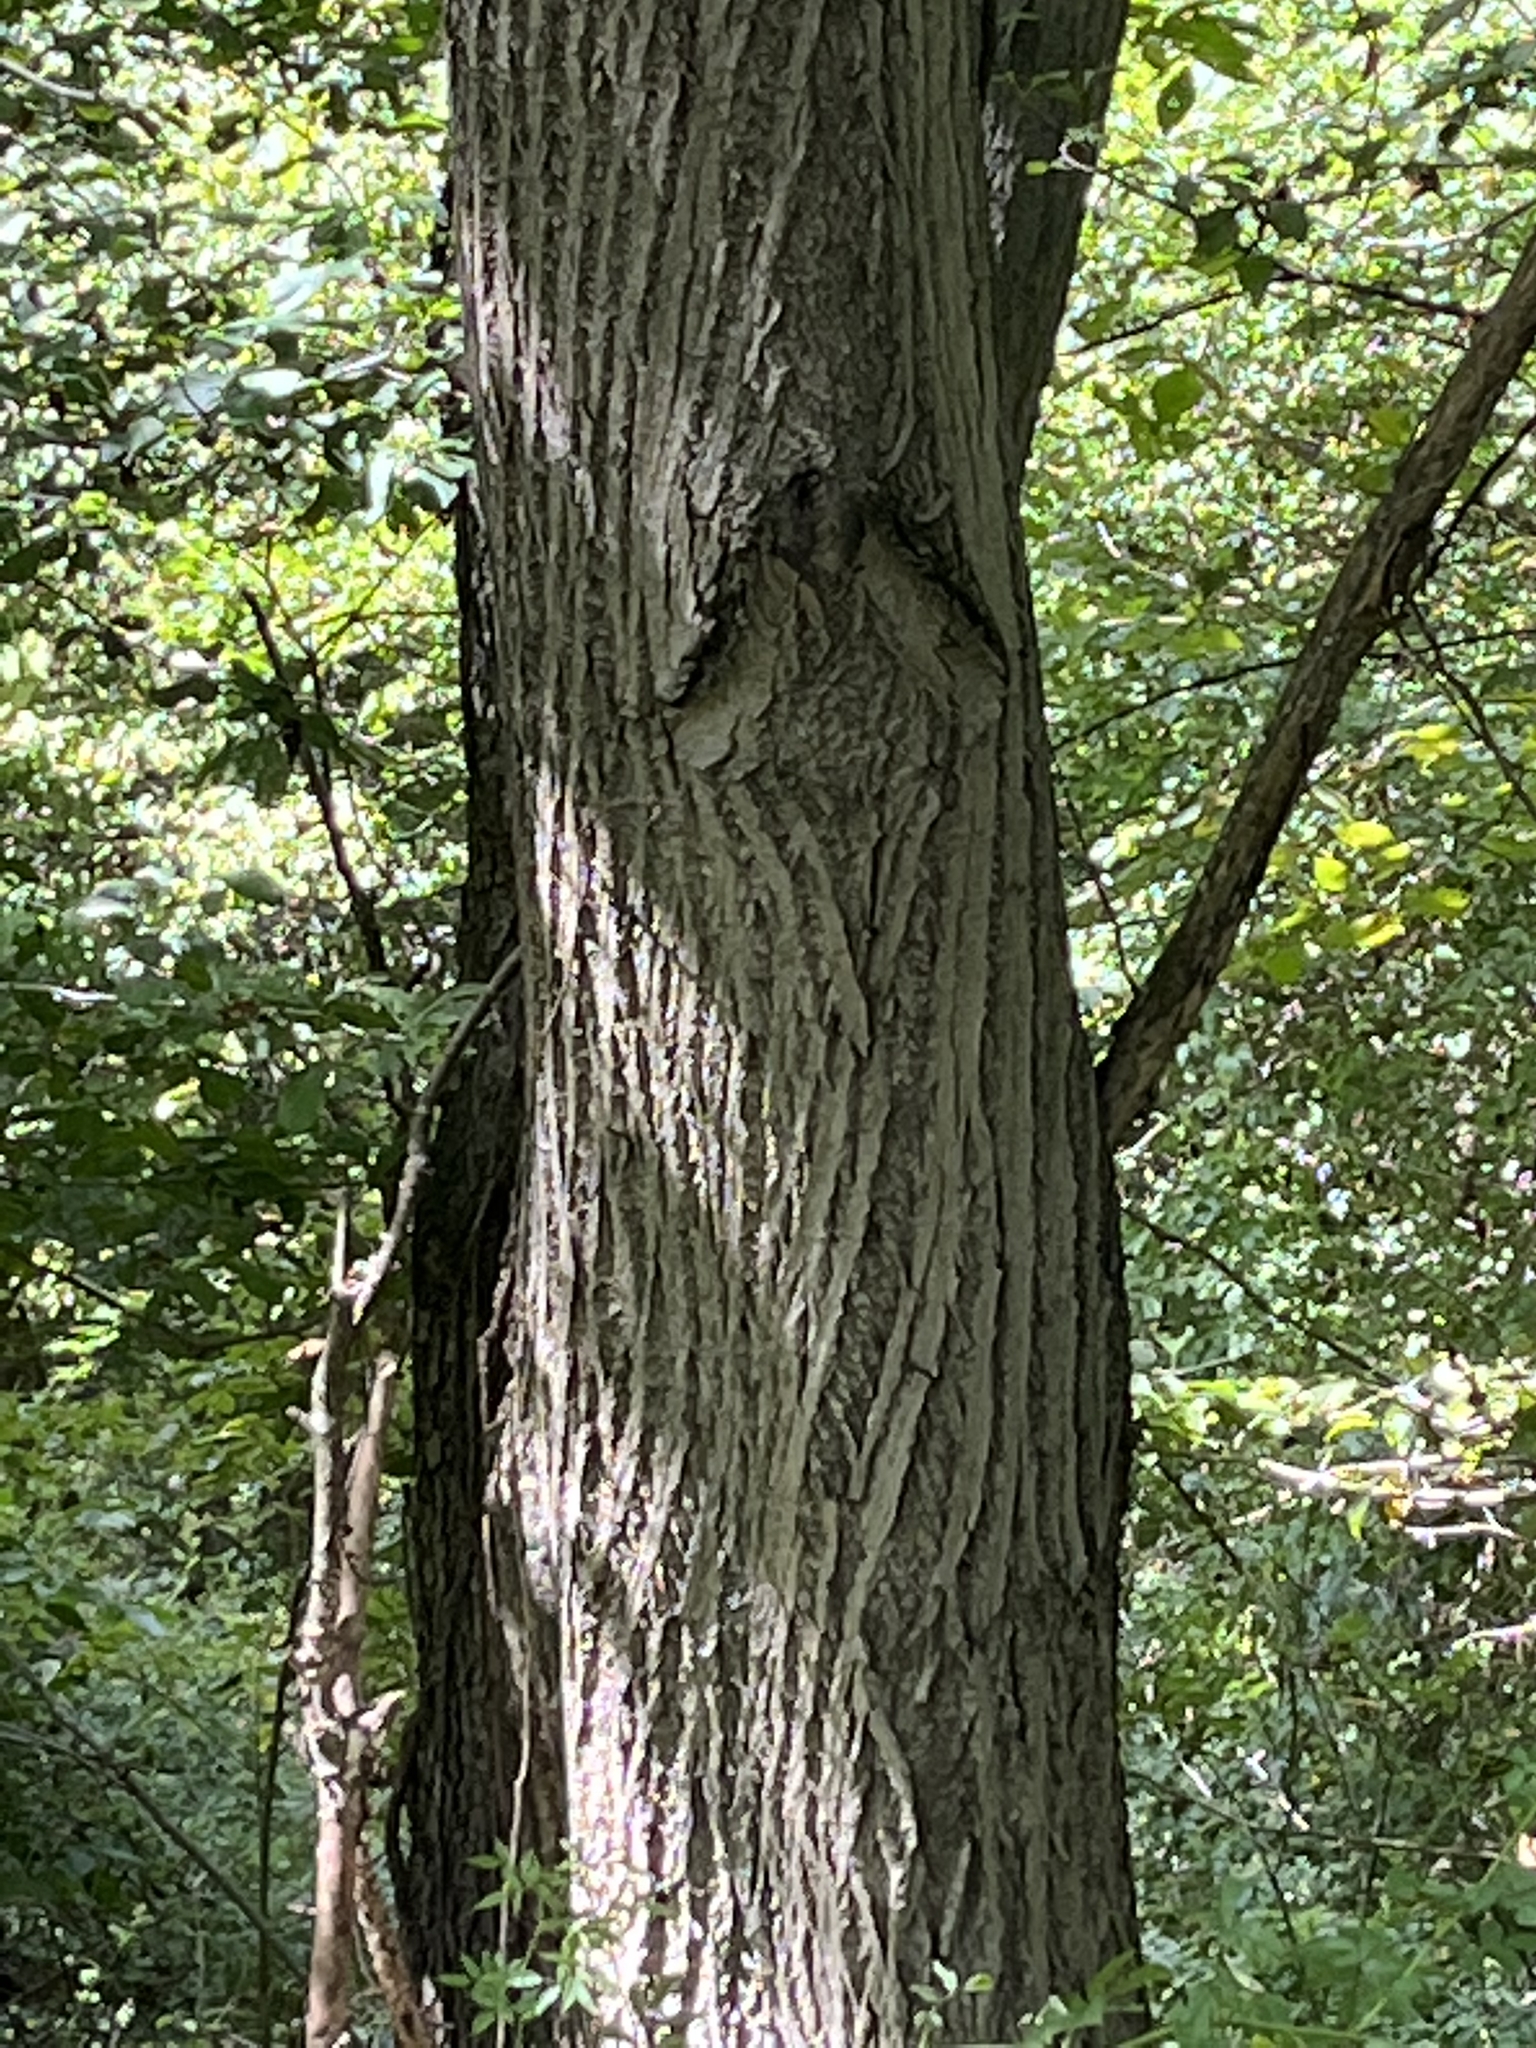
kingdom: Plantae
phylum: Tracheophyta
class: Magnoliopsida
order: Fagales
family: Juglandaceae
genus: Juglans
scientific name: Juglans cinerea
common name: Butternut
